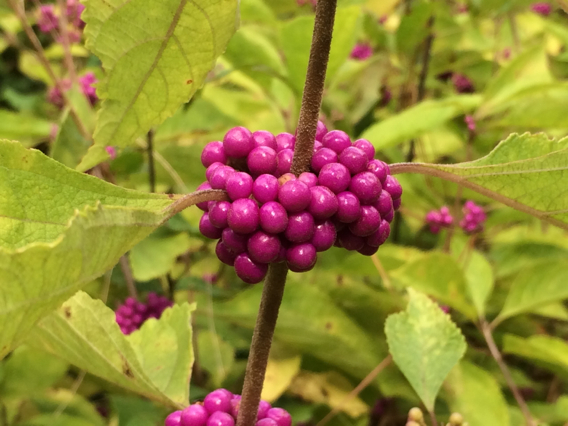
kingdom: Plantae
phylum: Tracheophyta
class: Magnoliopsida
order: Lamiales
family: Lamiaceae
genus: Callicarpa
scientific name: Callicarpa americana
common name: American beautyberry
